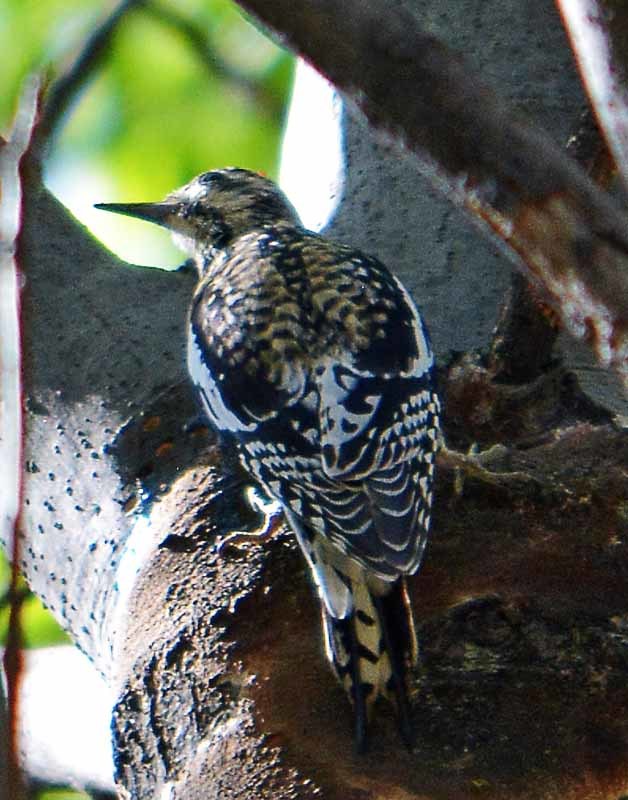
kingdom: Animalia
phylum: Chordata
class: Aves
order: Piciformes
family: Picidae
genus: Sphyrapicus
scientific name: Sphyrapicus varius
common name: Yellow-bellied sapsucker
